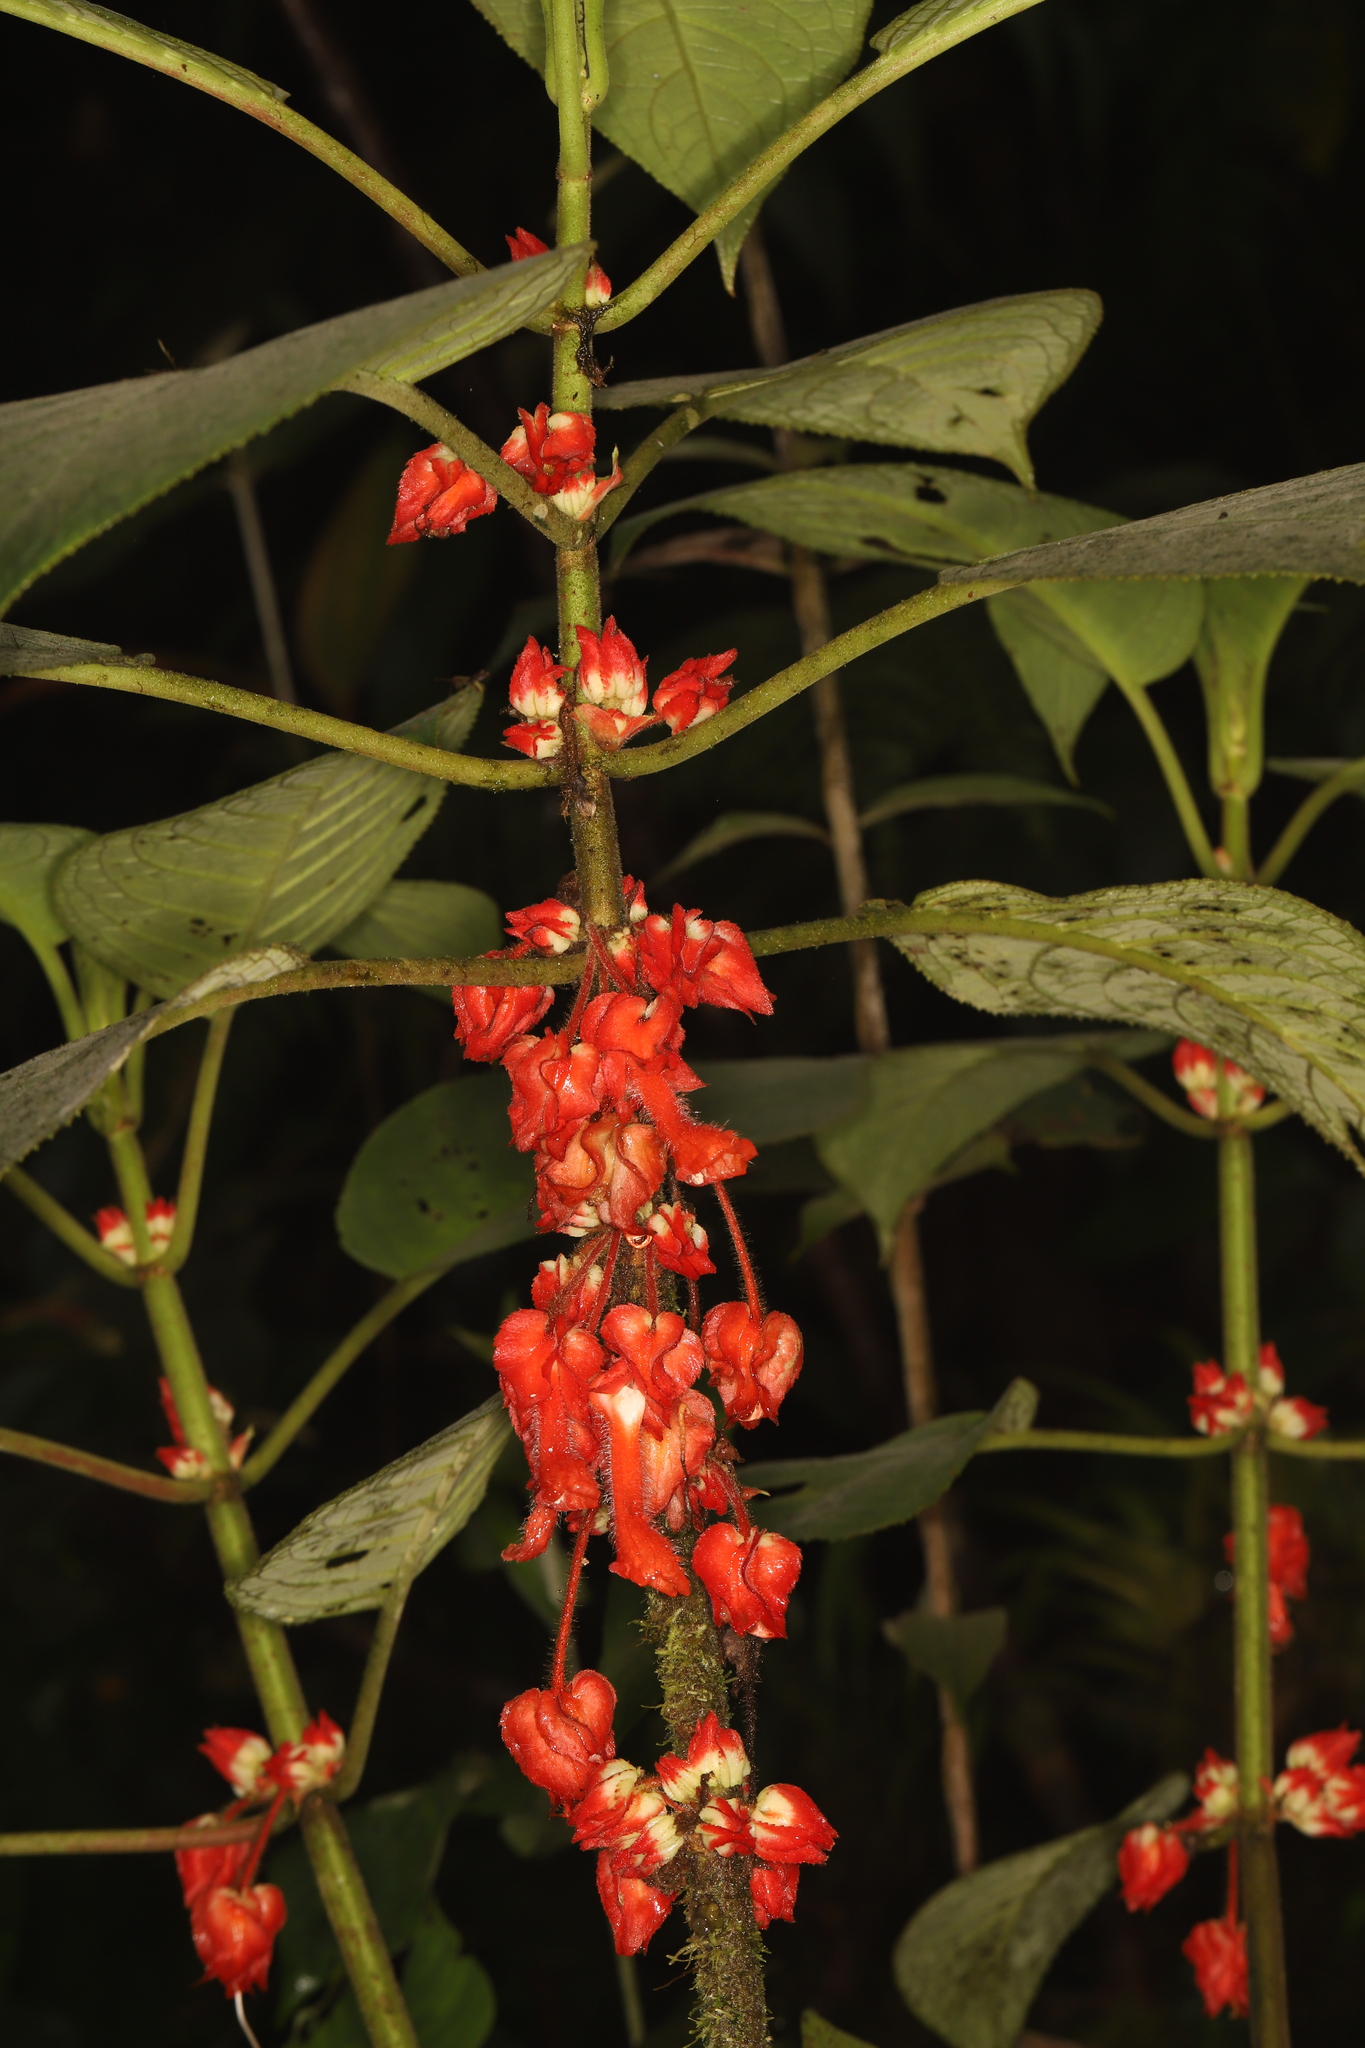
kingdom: Plantae
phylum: Tracheophyta
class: Magnoliopsida
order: Lamiales
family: Gesneriaceae
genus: Glossoloma
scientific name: Glossoloma schultzei
